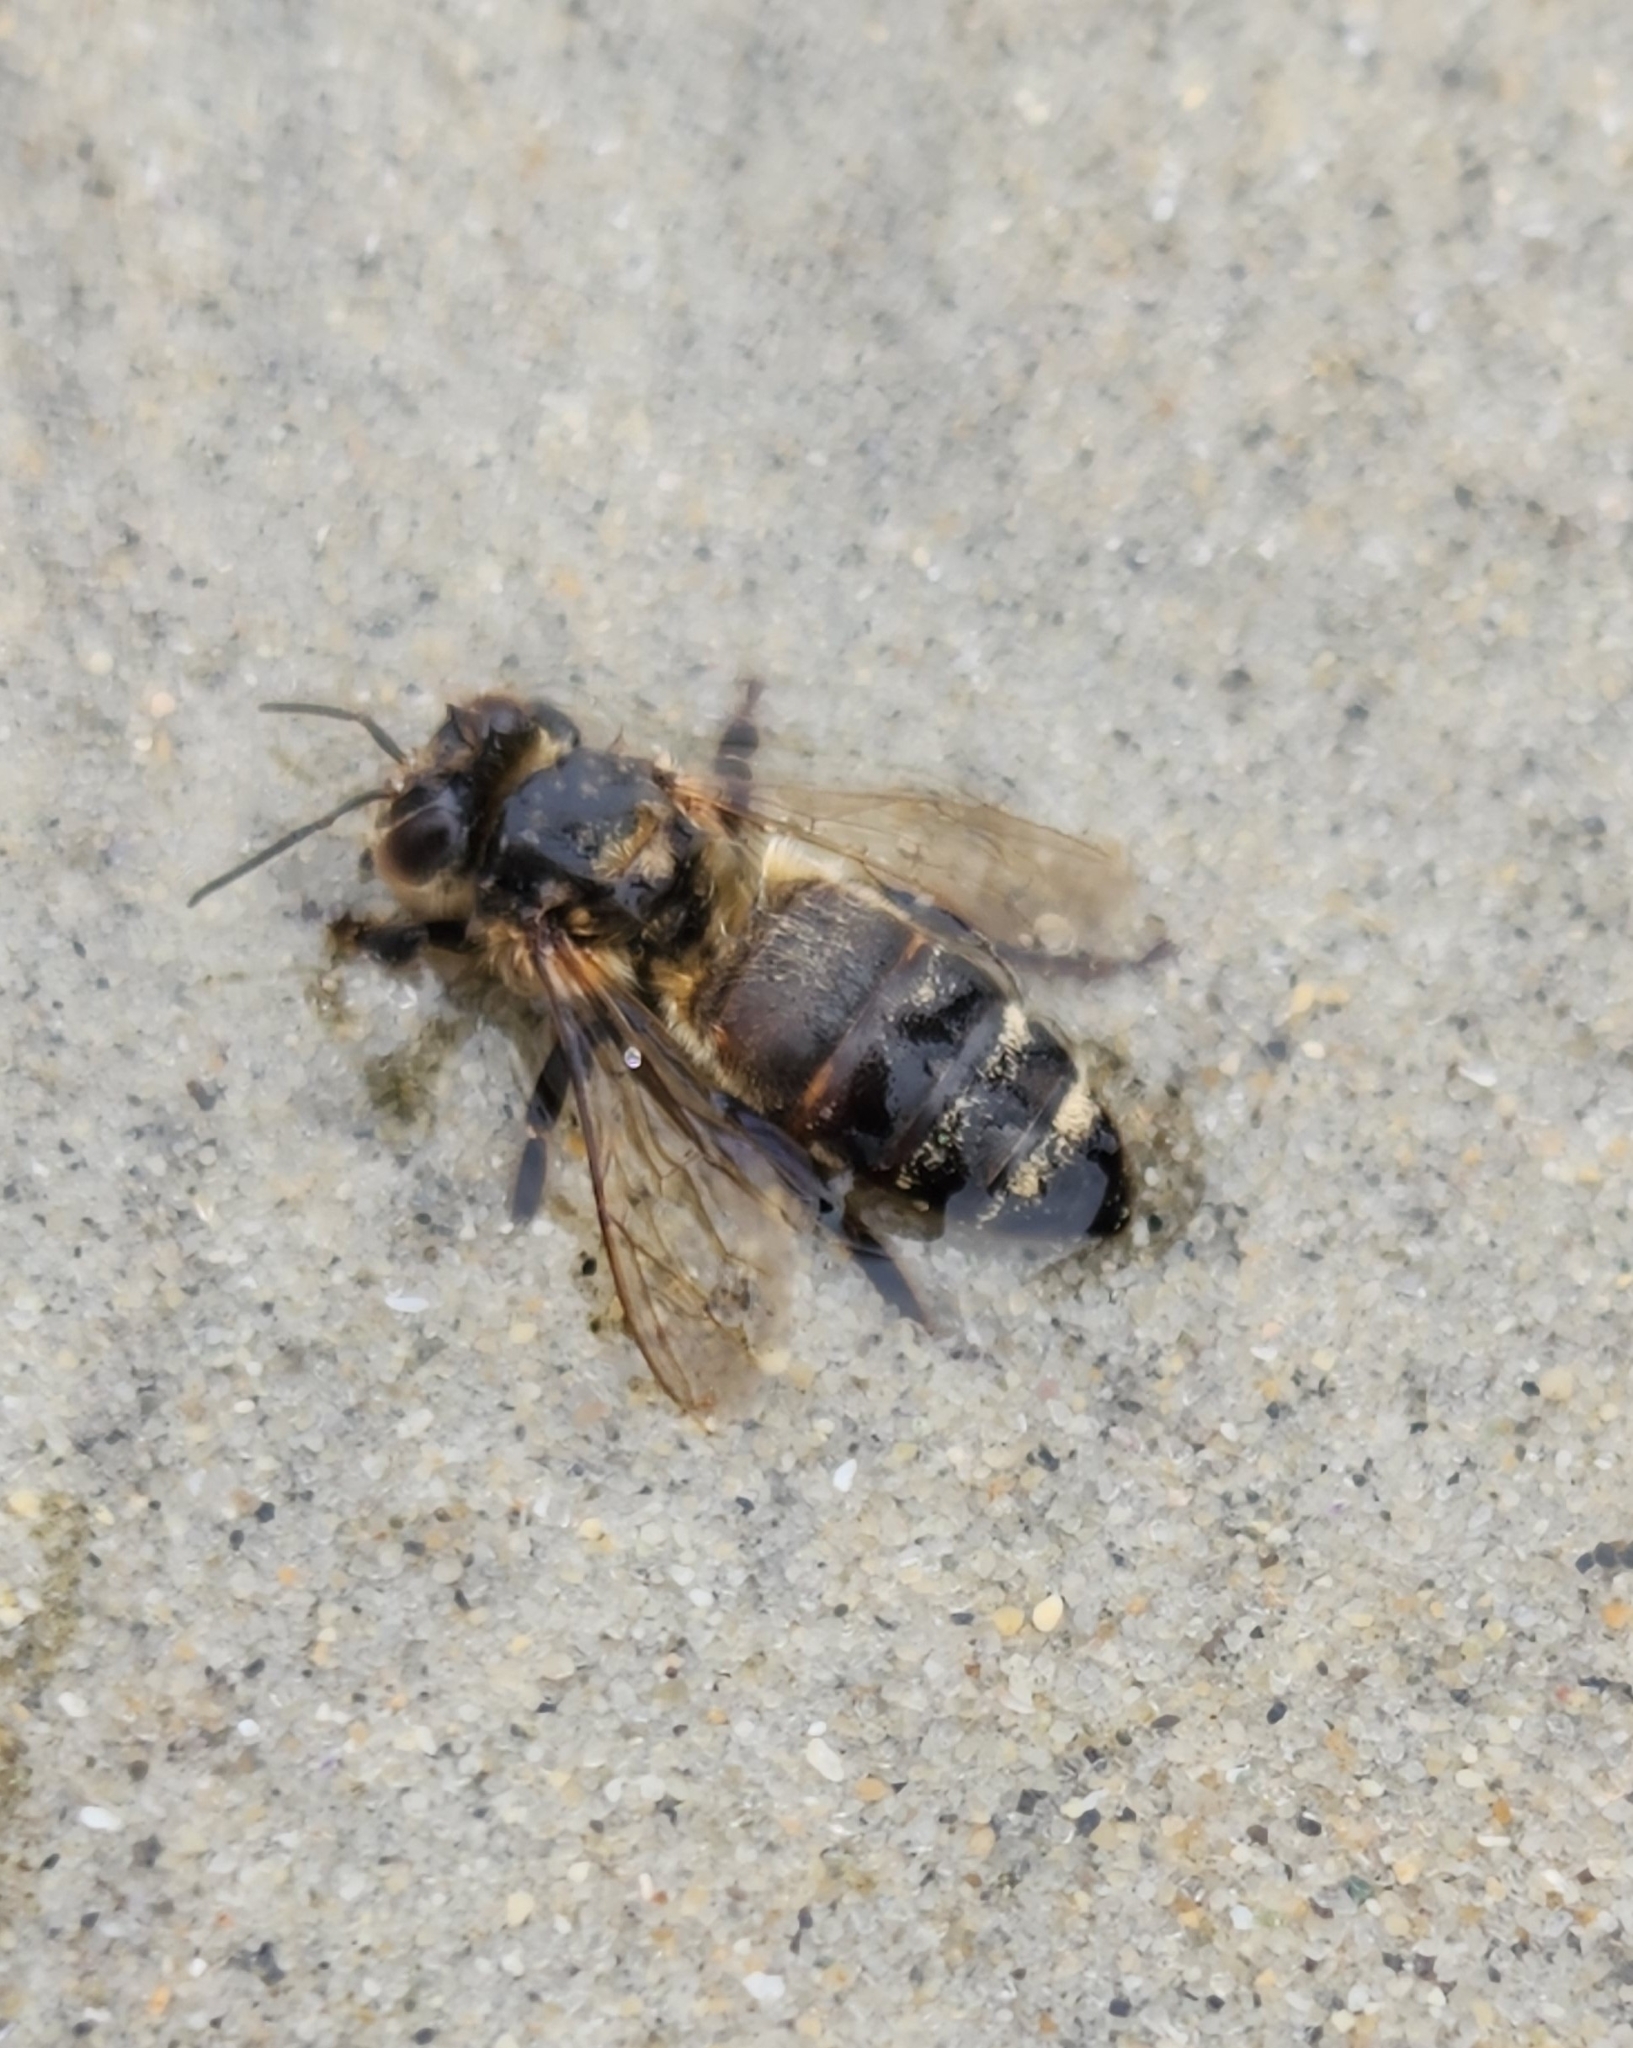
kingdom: Animalia
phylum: Arthropoda
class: Insecta
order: Hymenoptera
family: Apidae
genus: Apis
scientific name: Apis mellifera
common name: Honey bee
